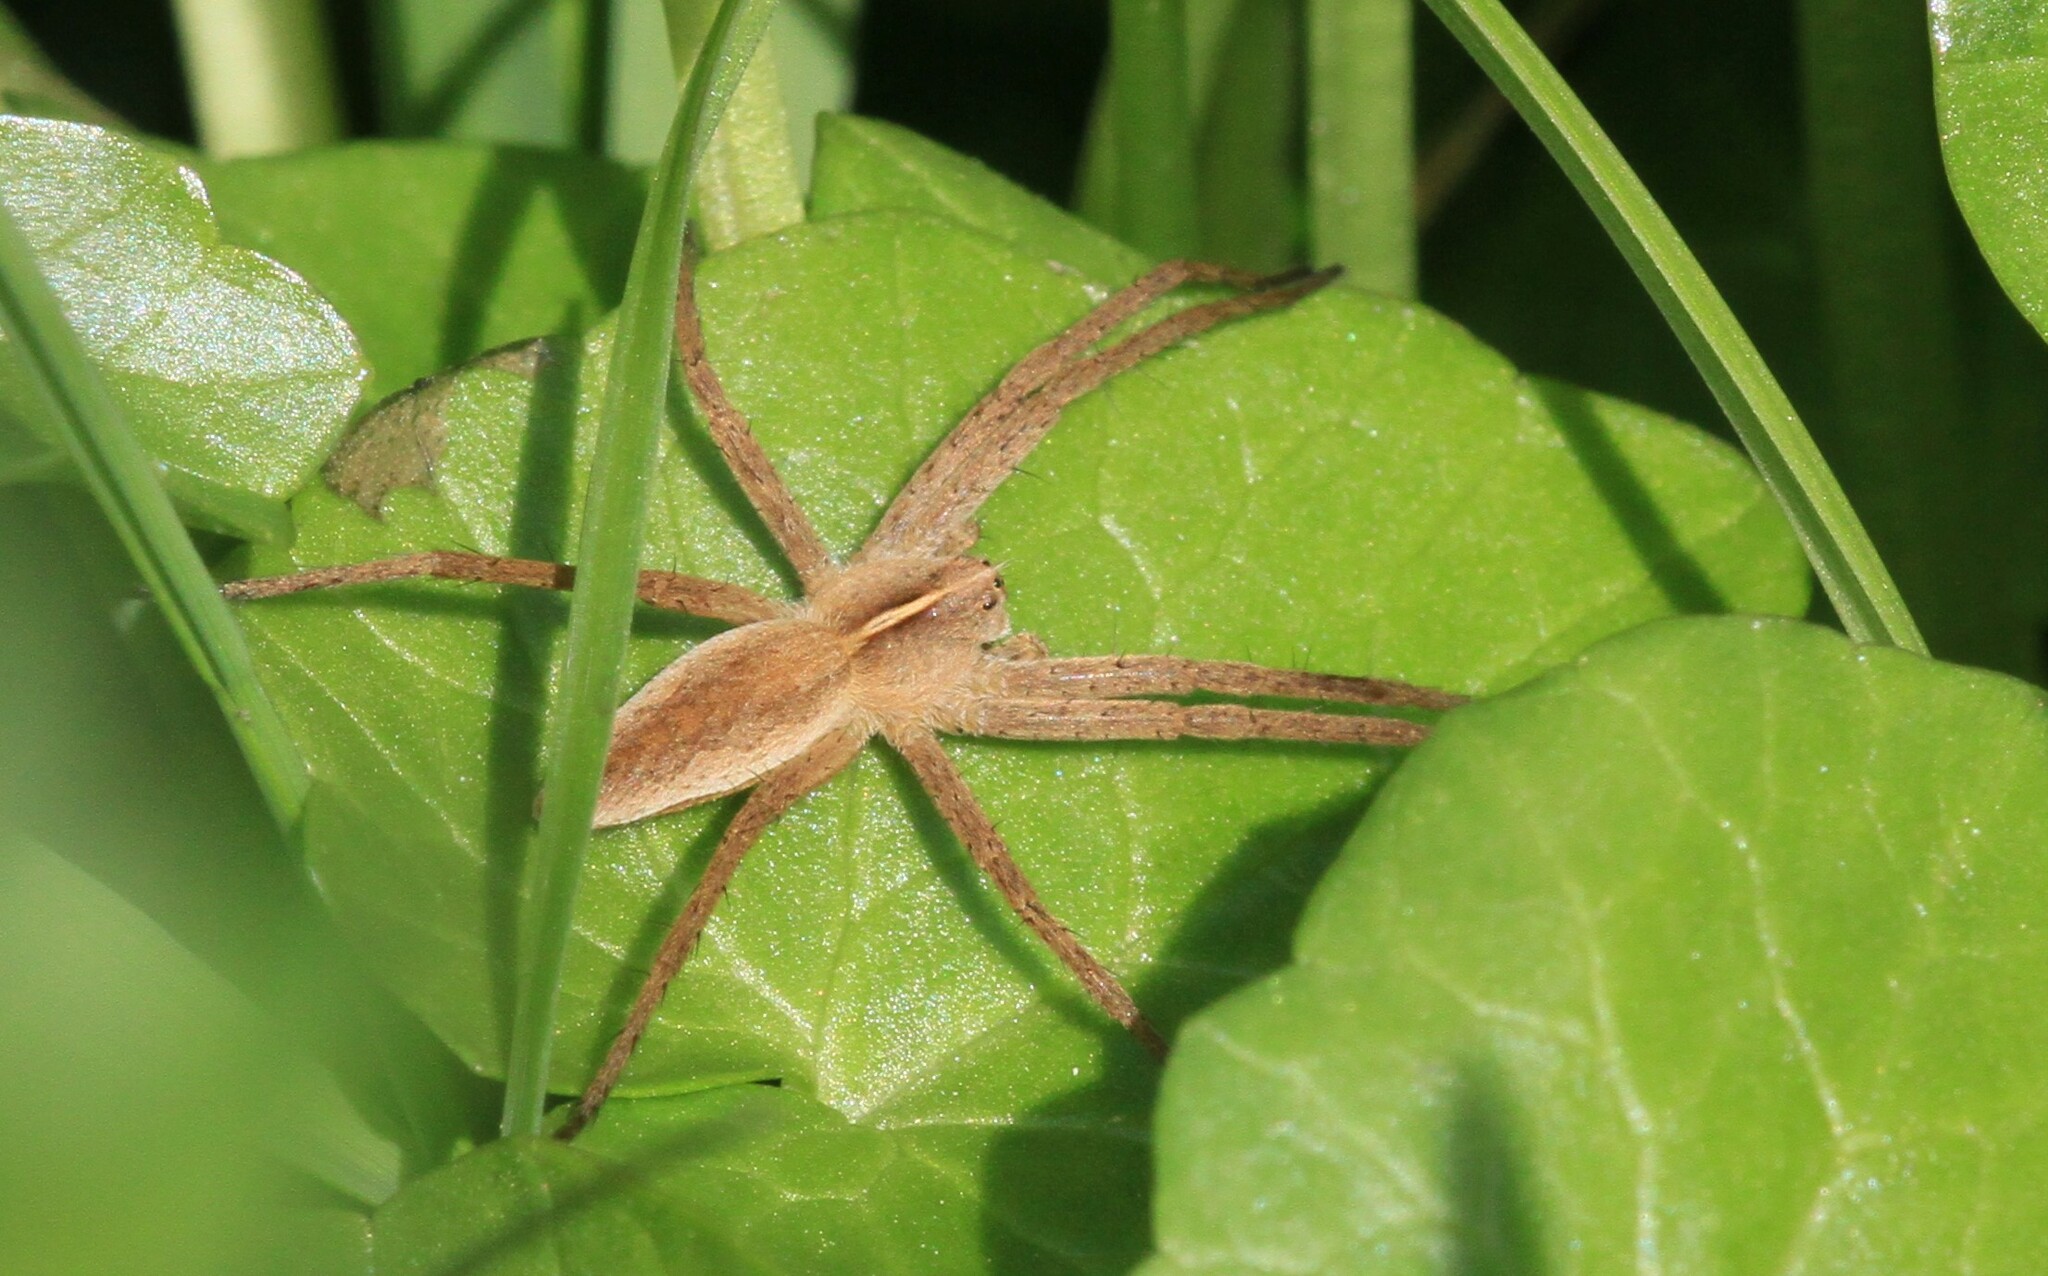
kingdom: Animalia
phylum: Arthropoda
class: Arachnida
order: Araneae
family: Pisauridae
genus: Pisaura
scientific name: Pisaura mirabilis
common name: Tent spider
